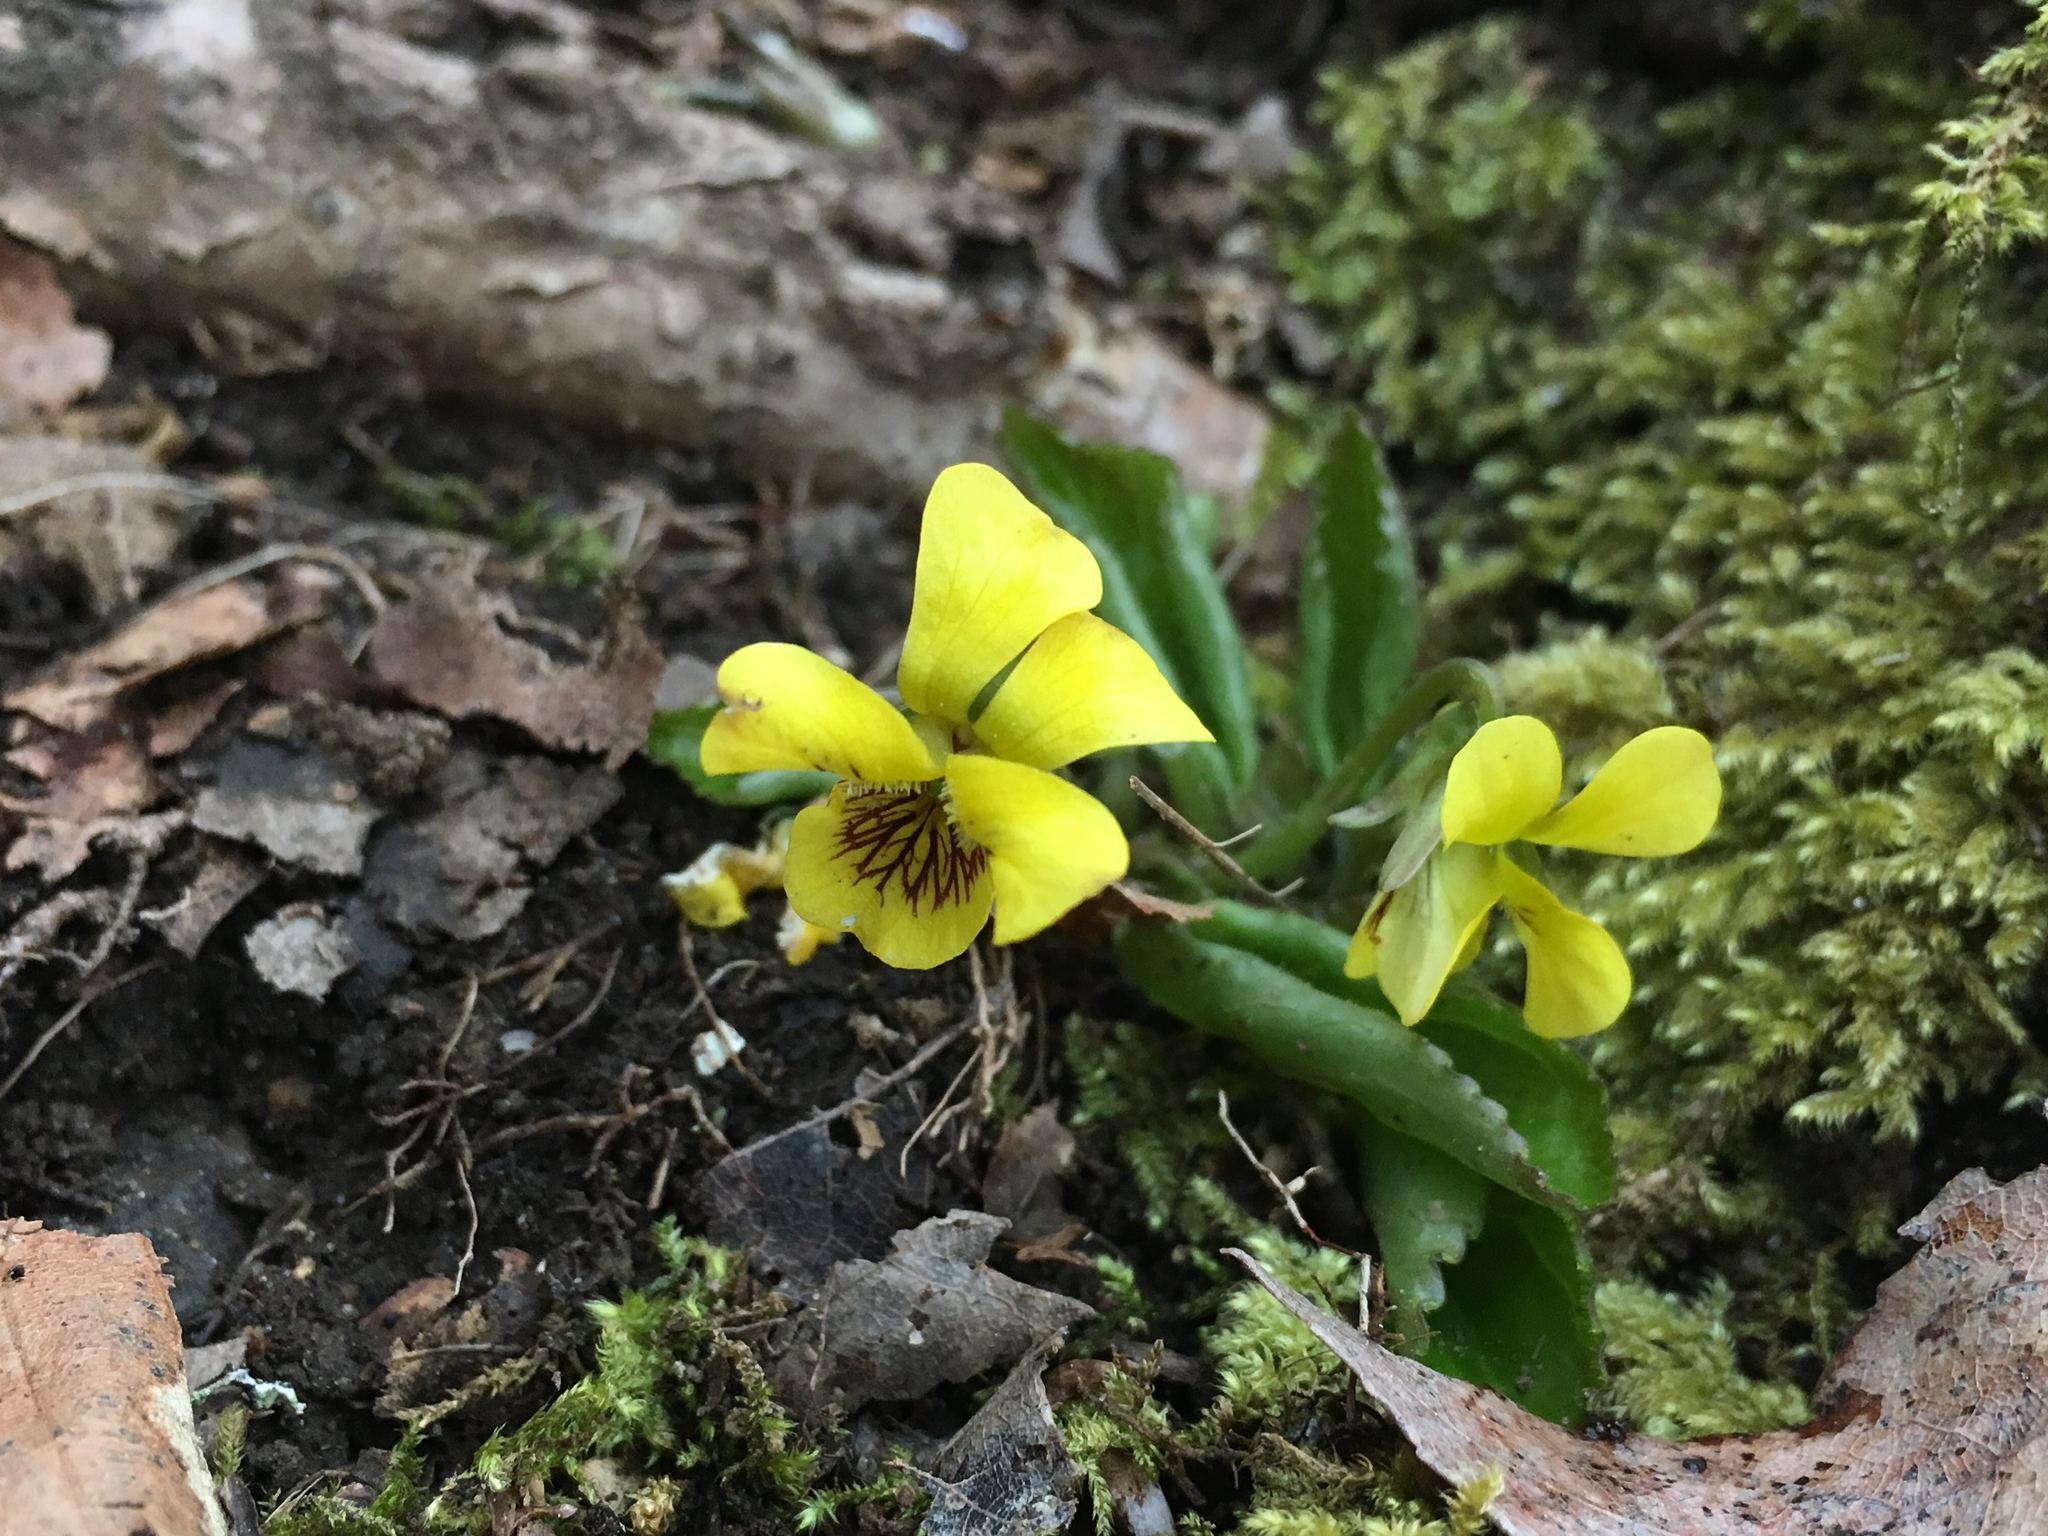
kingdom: Plantae
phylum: Tracheophyta
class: Magnoliopsida
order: Malpighiales
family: Violaceae
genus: Viola
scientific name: Viola rotundifolia
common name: Early yellow violet
